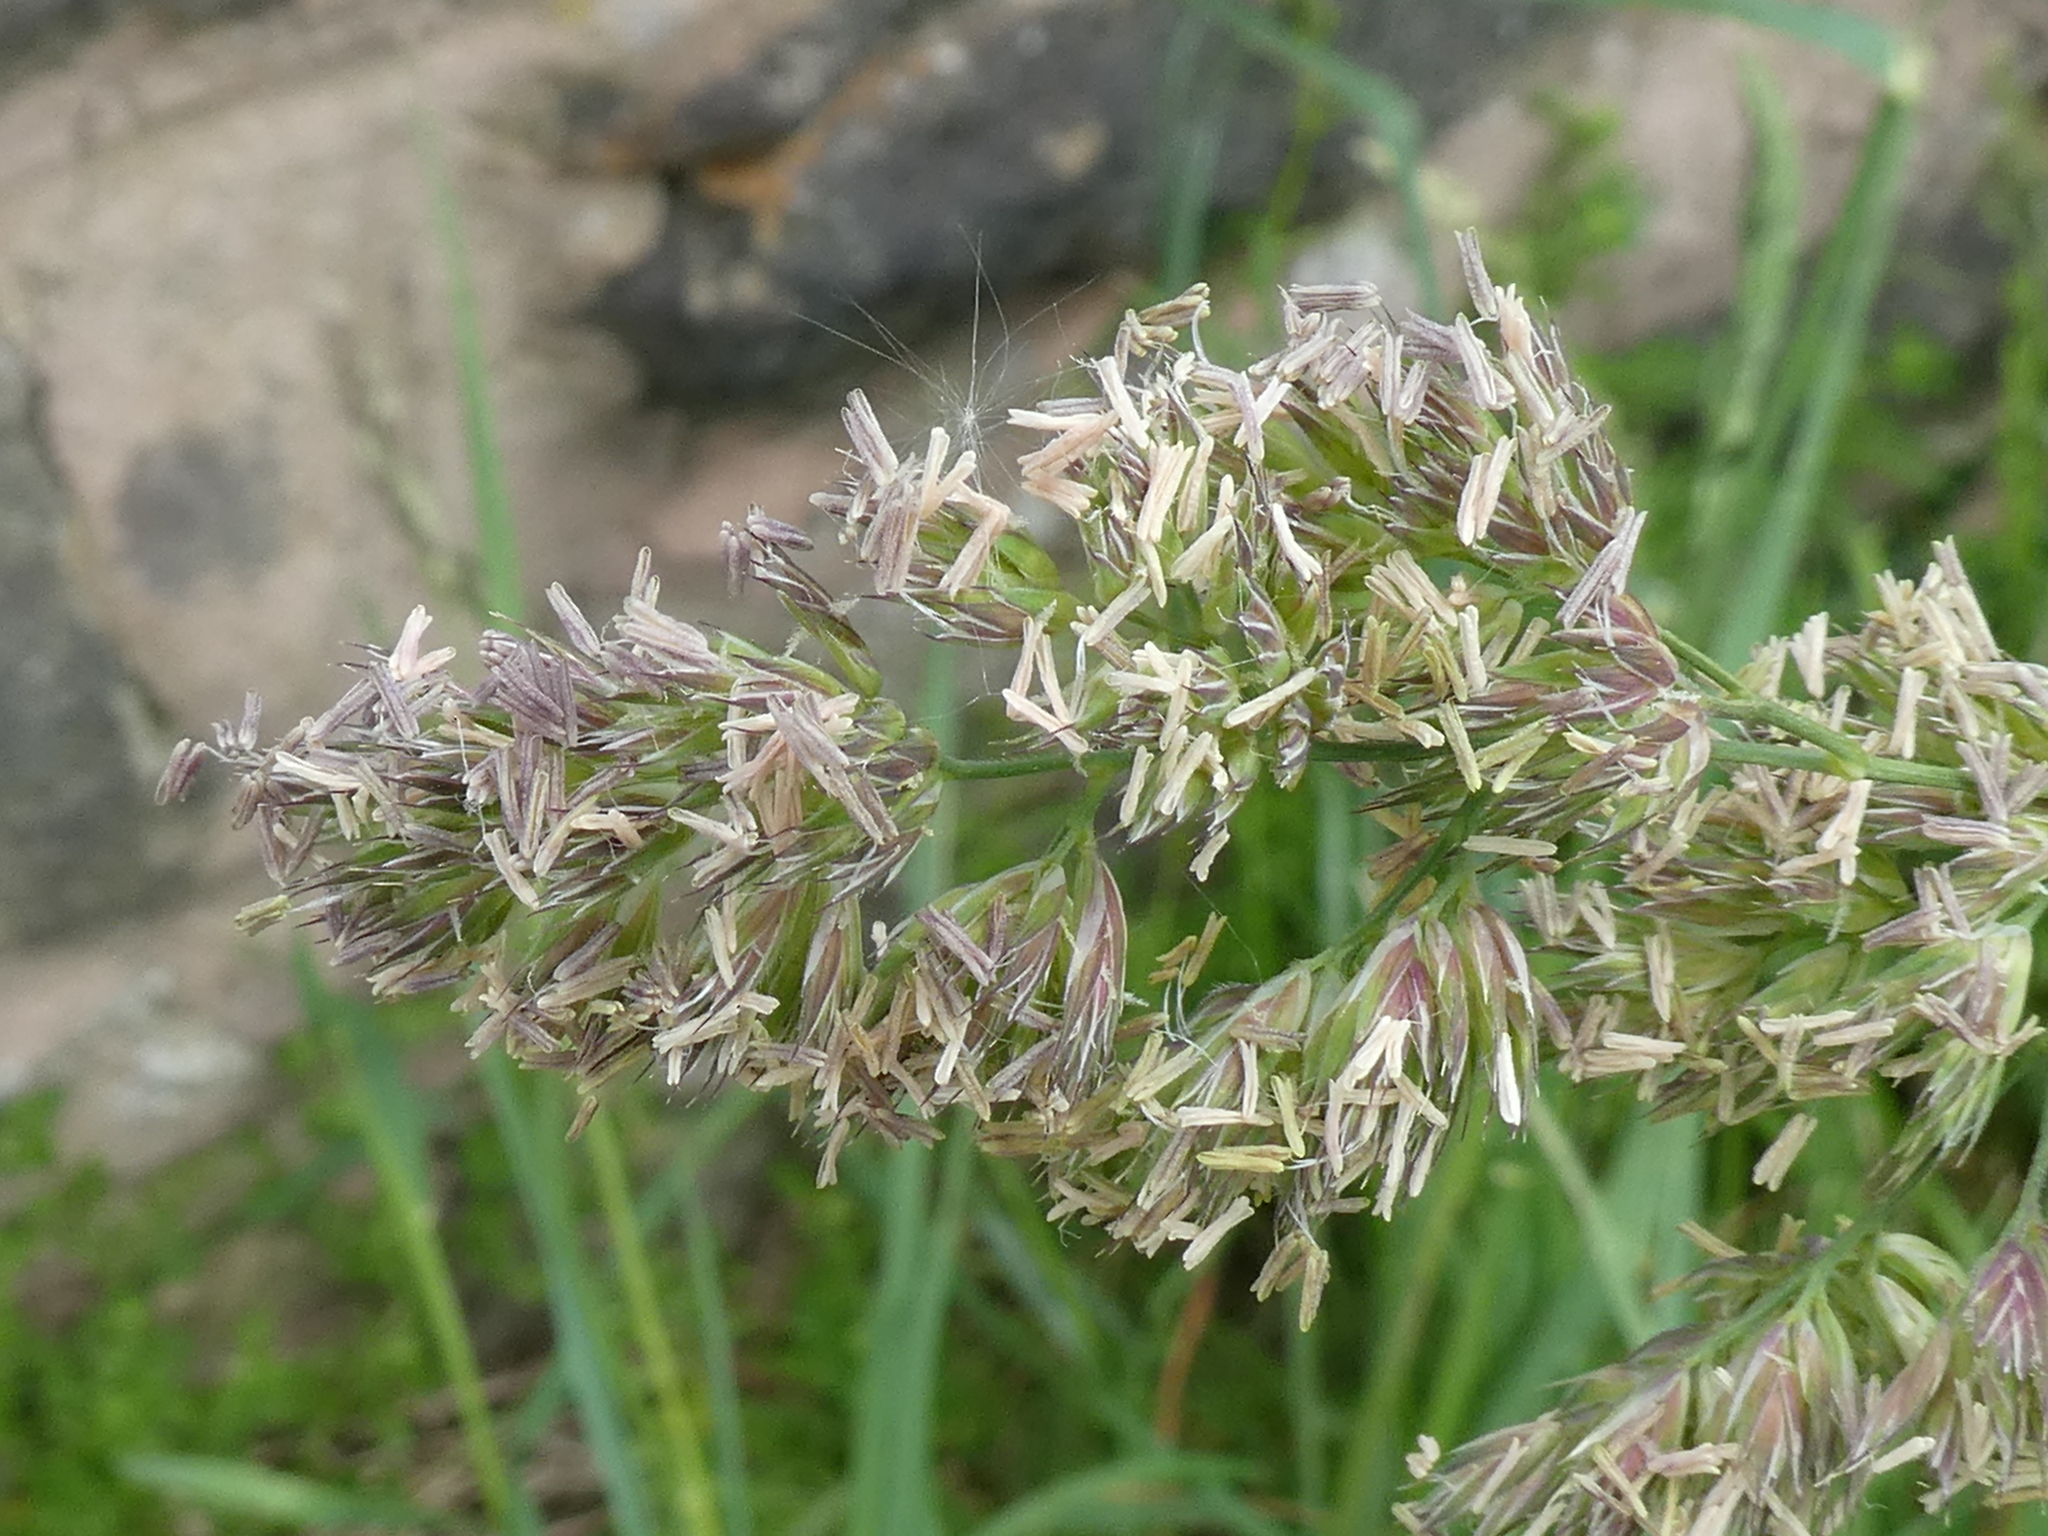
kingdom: Plantae
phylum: Tracheophyta
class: Liliopsida
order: Poales
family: Poaceae
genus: Dactylis
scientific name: Dactylis glomerata
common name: Orchardgrass
